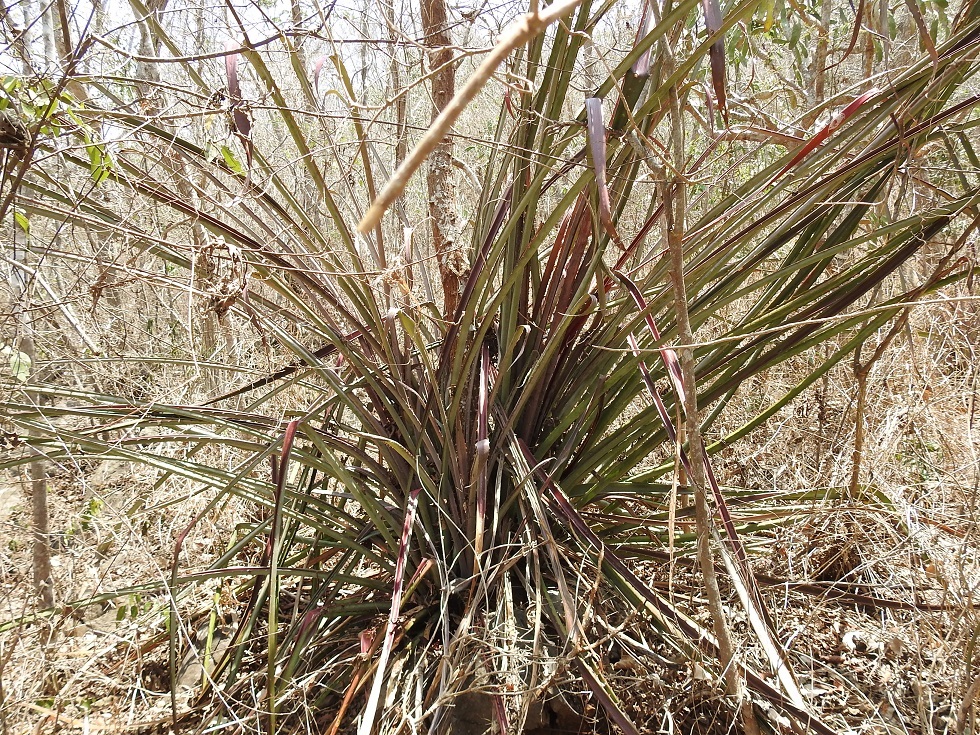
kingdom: Plantae
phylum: Tracheophyta
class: Liliopsida
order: Poales
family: Bromeliaceae
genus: Bromelia
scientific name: Bromelia karatas
